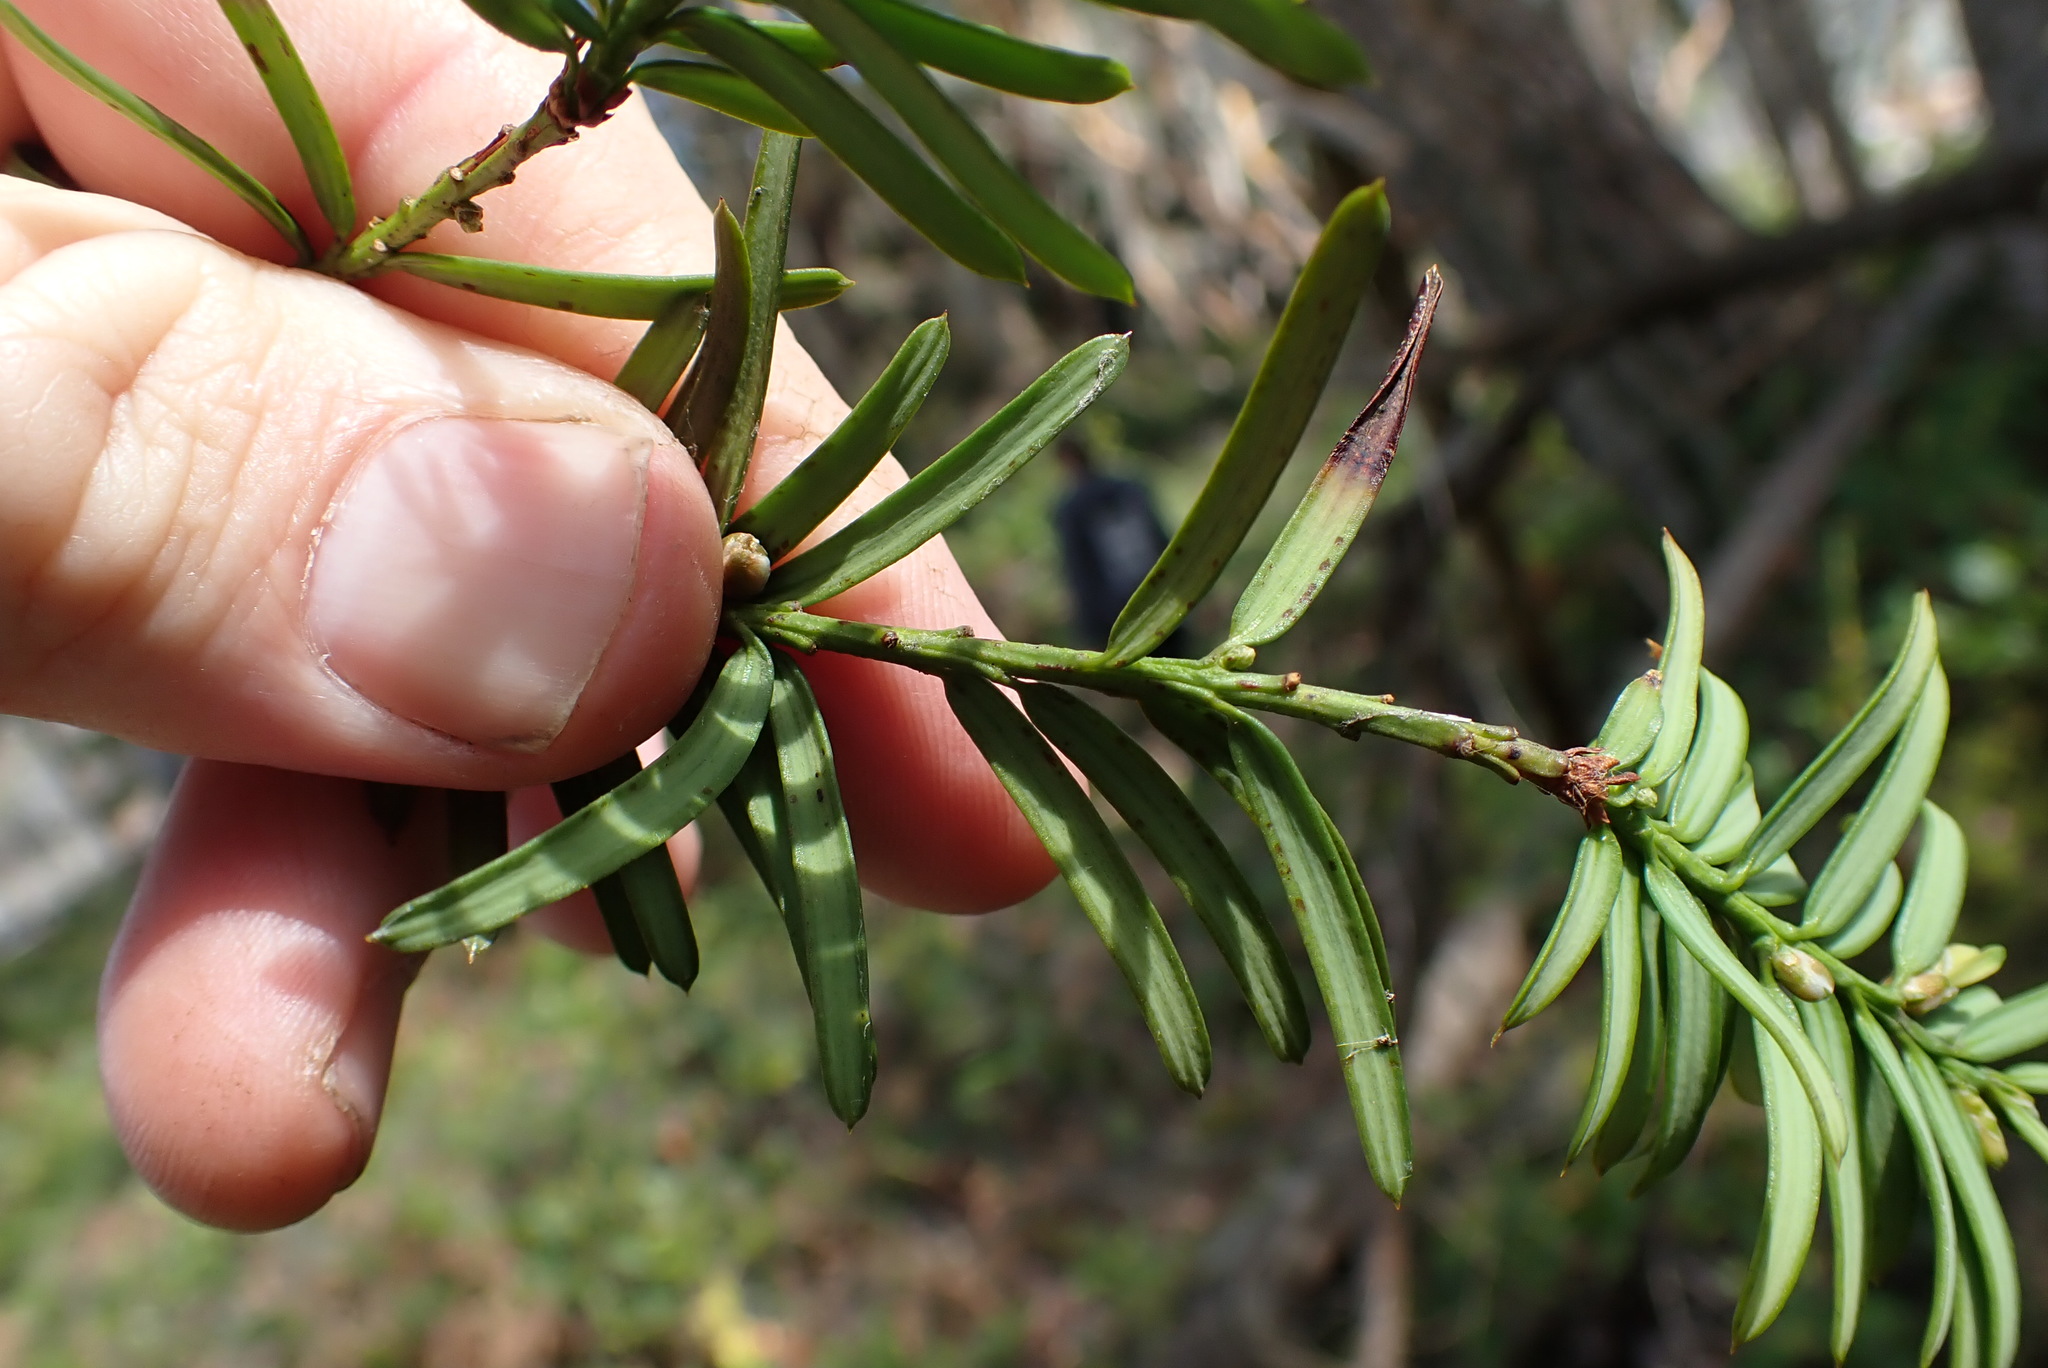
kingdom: Plantae
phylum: Tracheophyta
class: Pinopsida
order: Pinales
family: Taxaceae
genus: Taxus
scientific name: Taxus brevifolia
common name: Pacific yew
